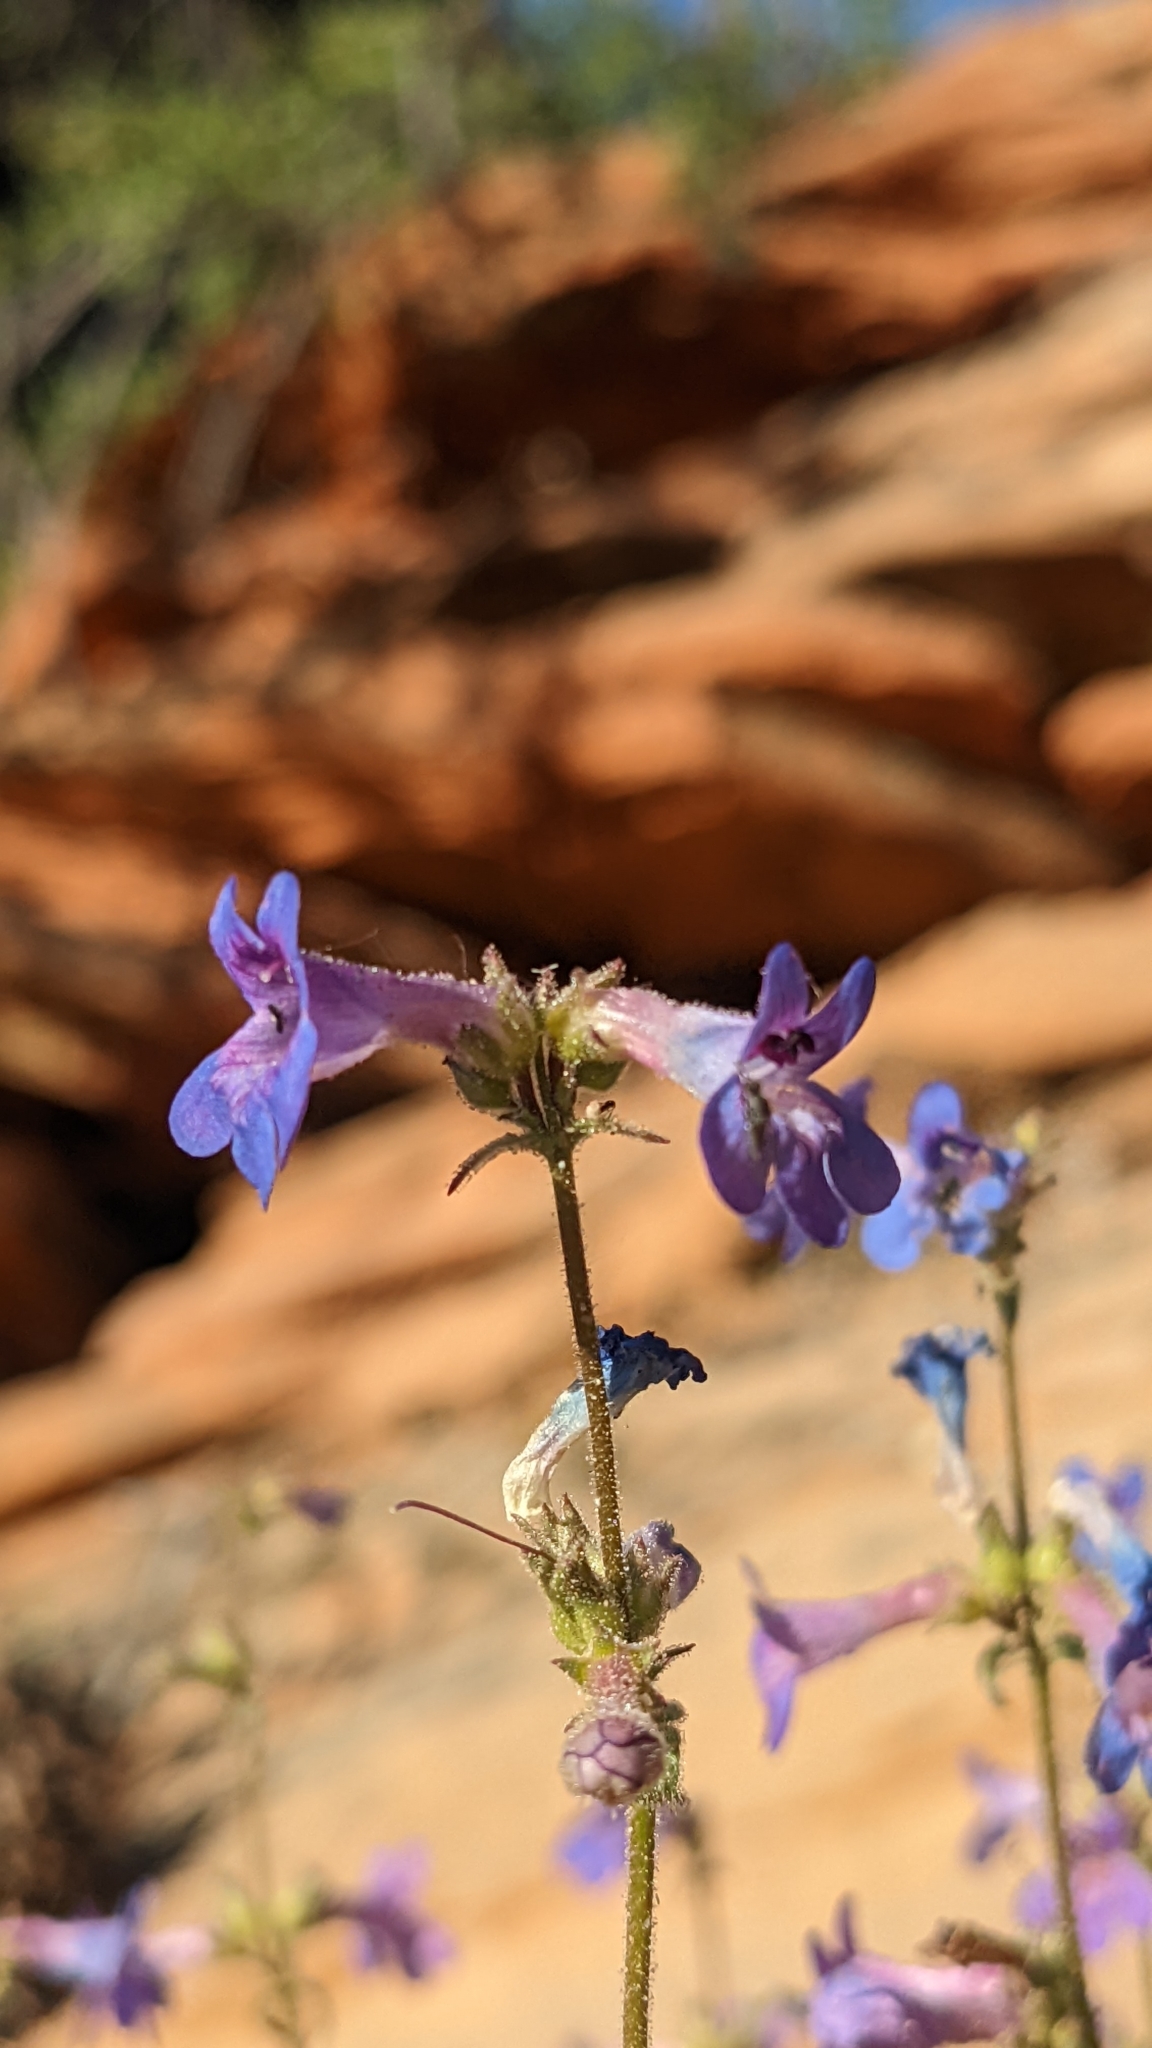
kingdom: Plantae
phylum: Tracheophyta
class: Magnoliopsida
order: Lamiales
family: Plantaginaceae
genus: Penstemon
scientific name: Penstemon humilis
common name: Low penstemon
